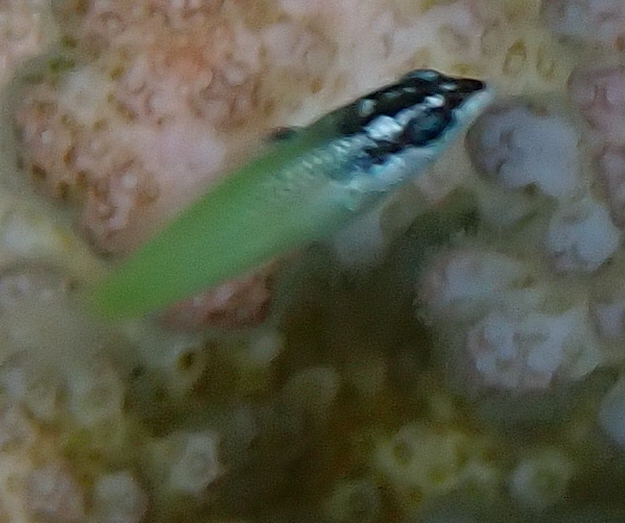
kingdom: Animalia
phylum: Chordata
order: Perciformes
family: Labridae
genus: Gomphosus
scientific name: Gomphosus klunzingeri
